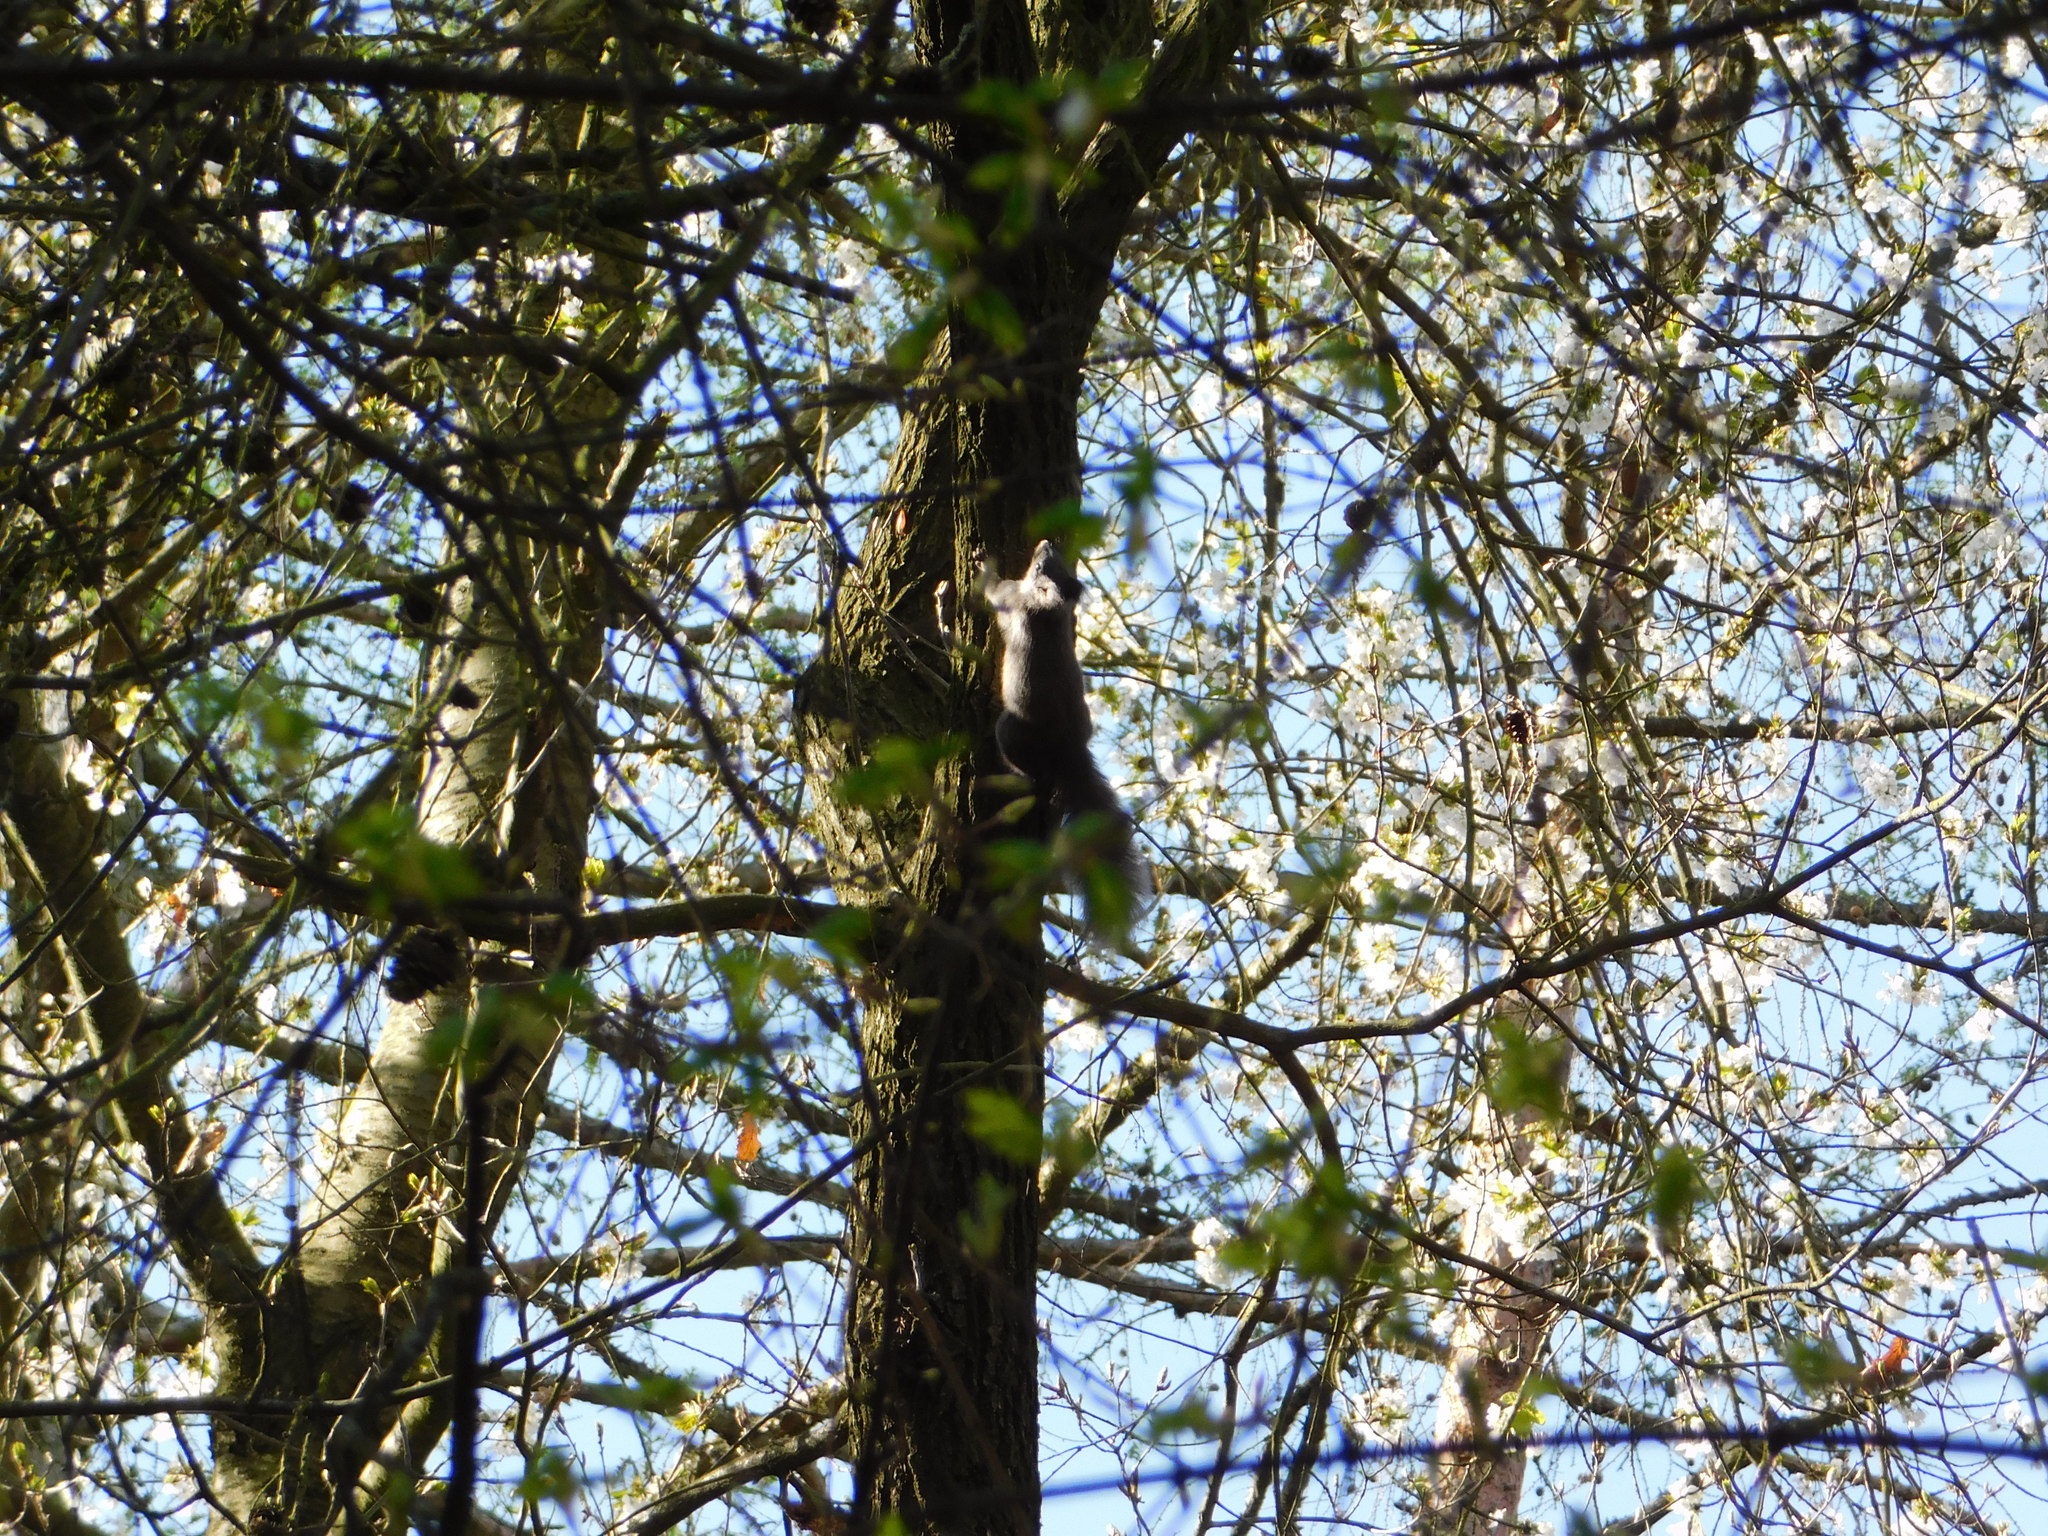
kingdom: Animalia
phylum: Chordata
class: Mammalia
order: Rodentia
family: Sciuridae
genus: Sciurus
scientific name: Sciurus vulgaris
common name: Eurasian red squirrel
